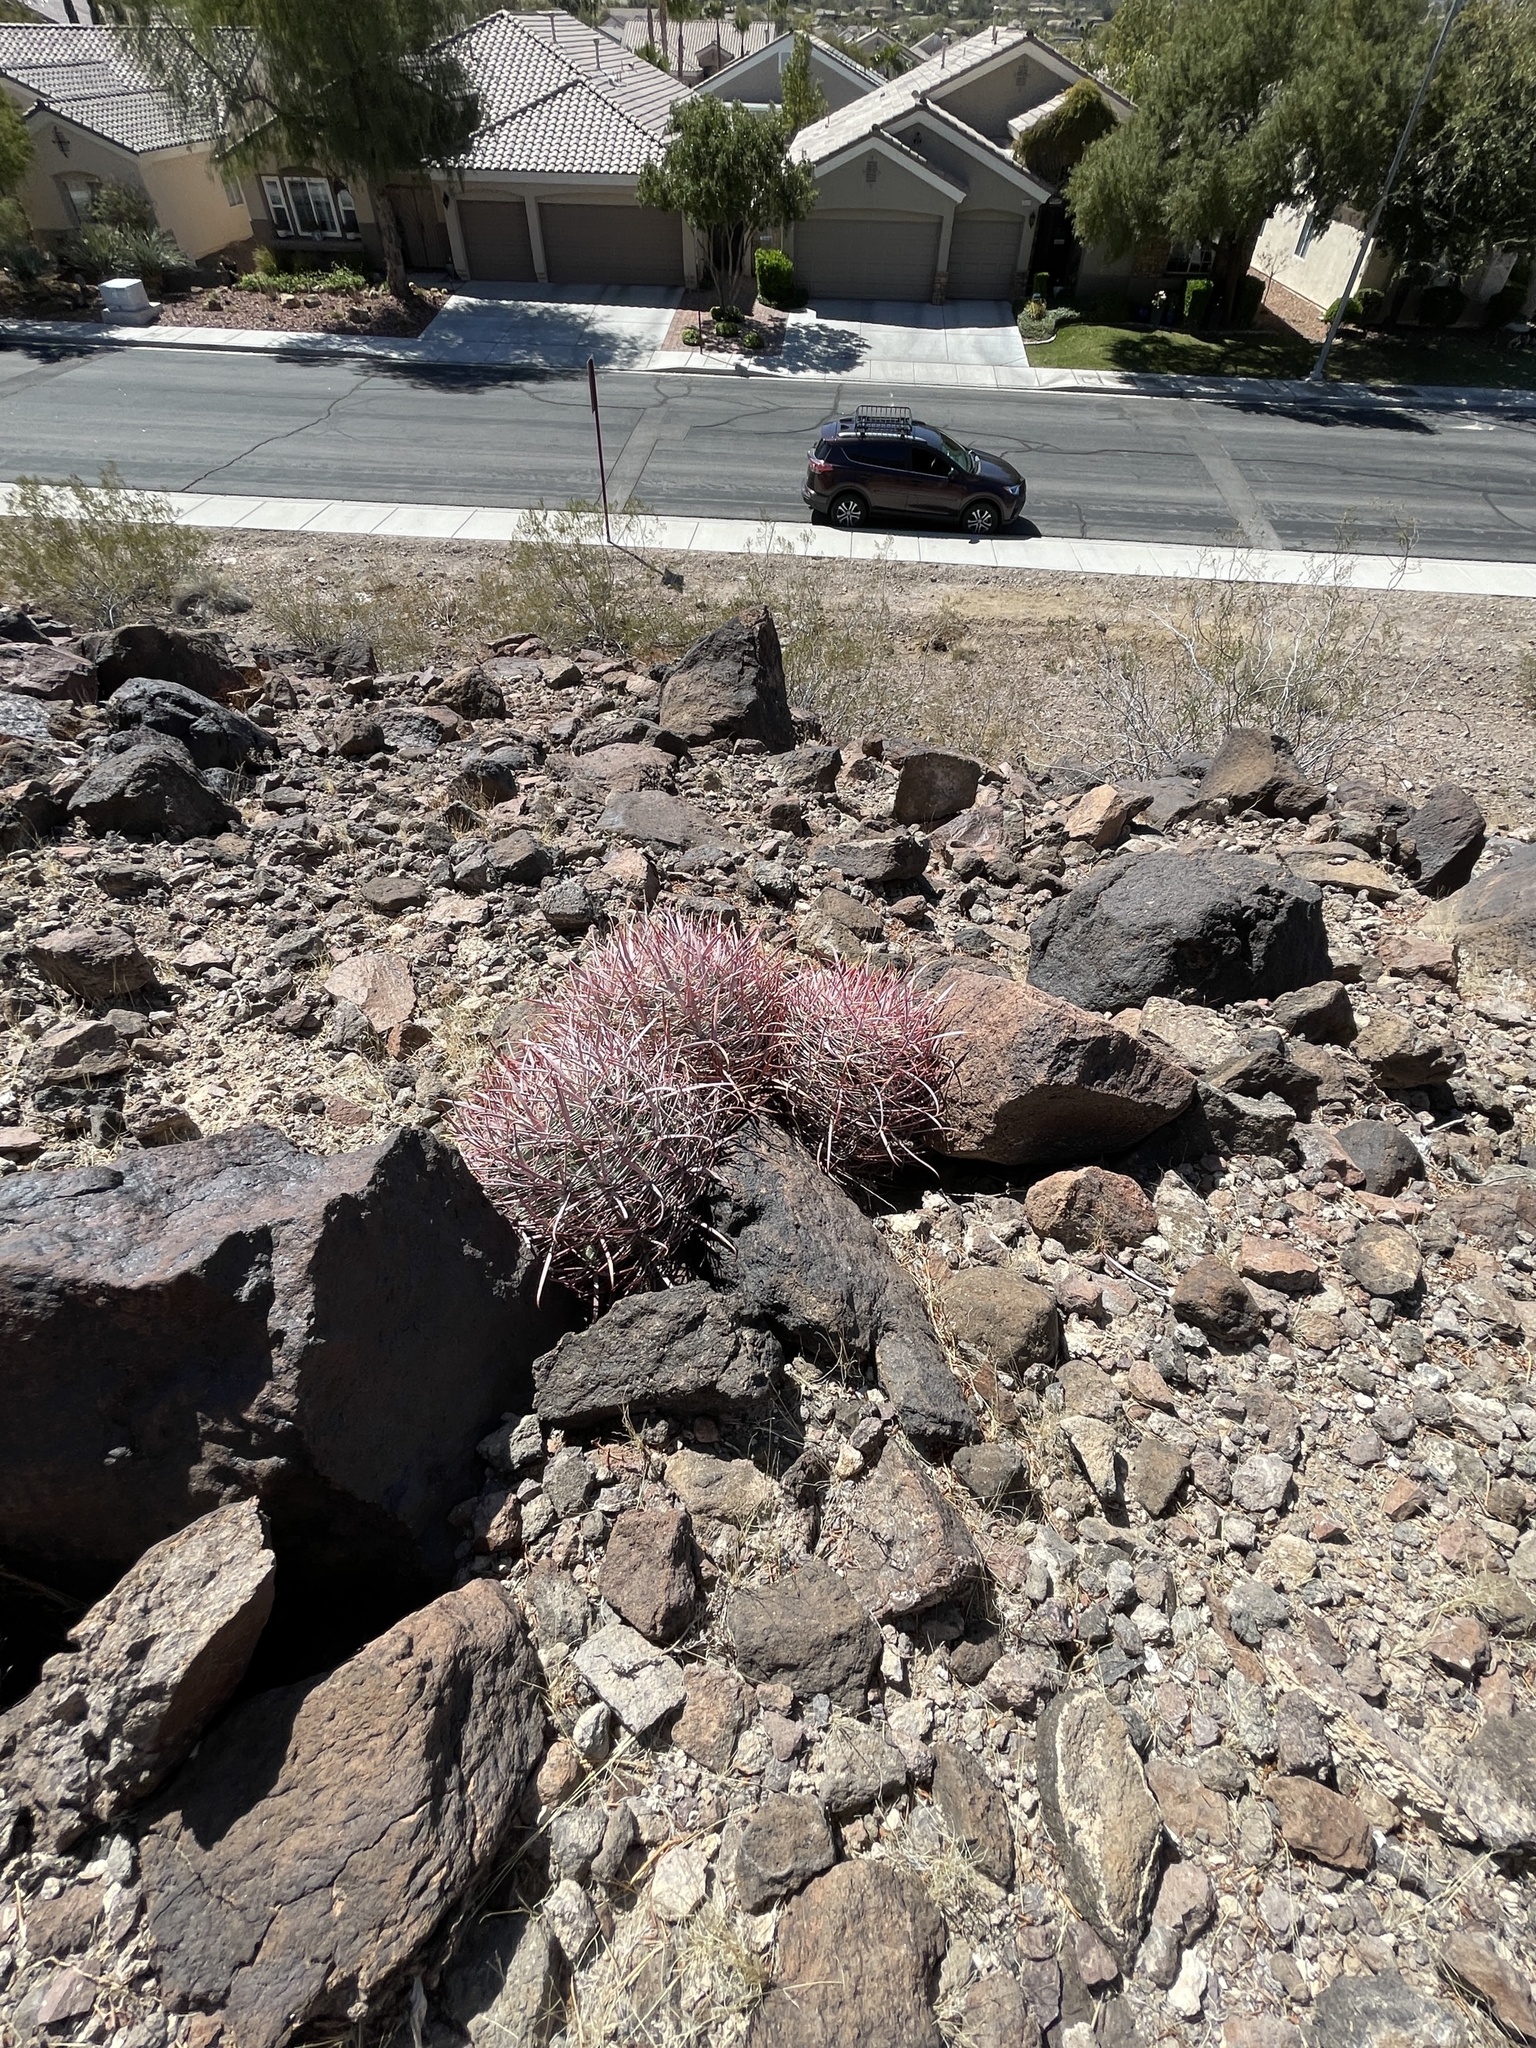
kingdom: Plantae
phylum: Tracheophyta
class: Magnoliopsida
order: Caryophyllales
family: Cactaceae
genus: Ferocactus
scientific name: Ferocactus cylindraceus
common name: California barrel cactus
